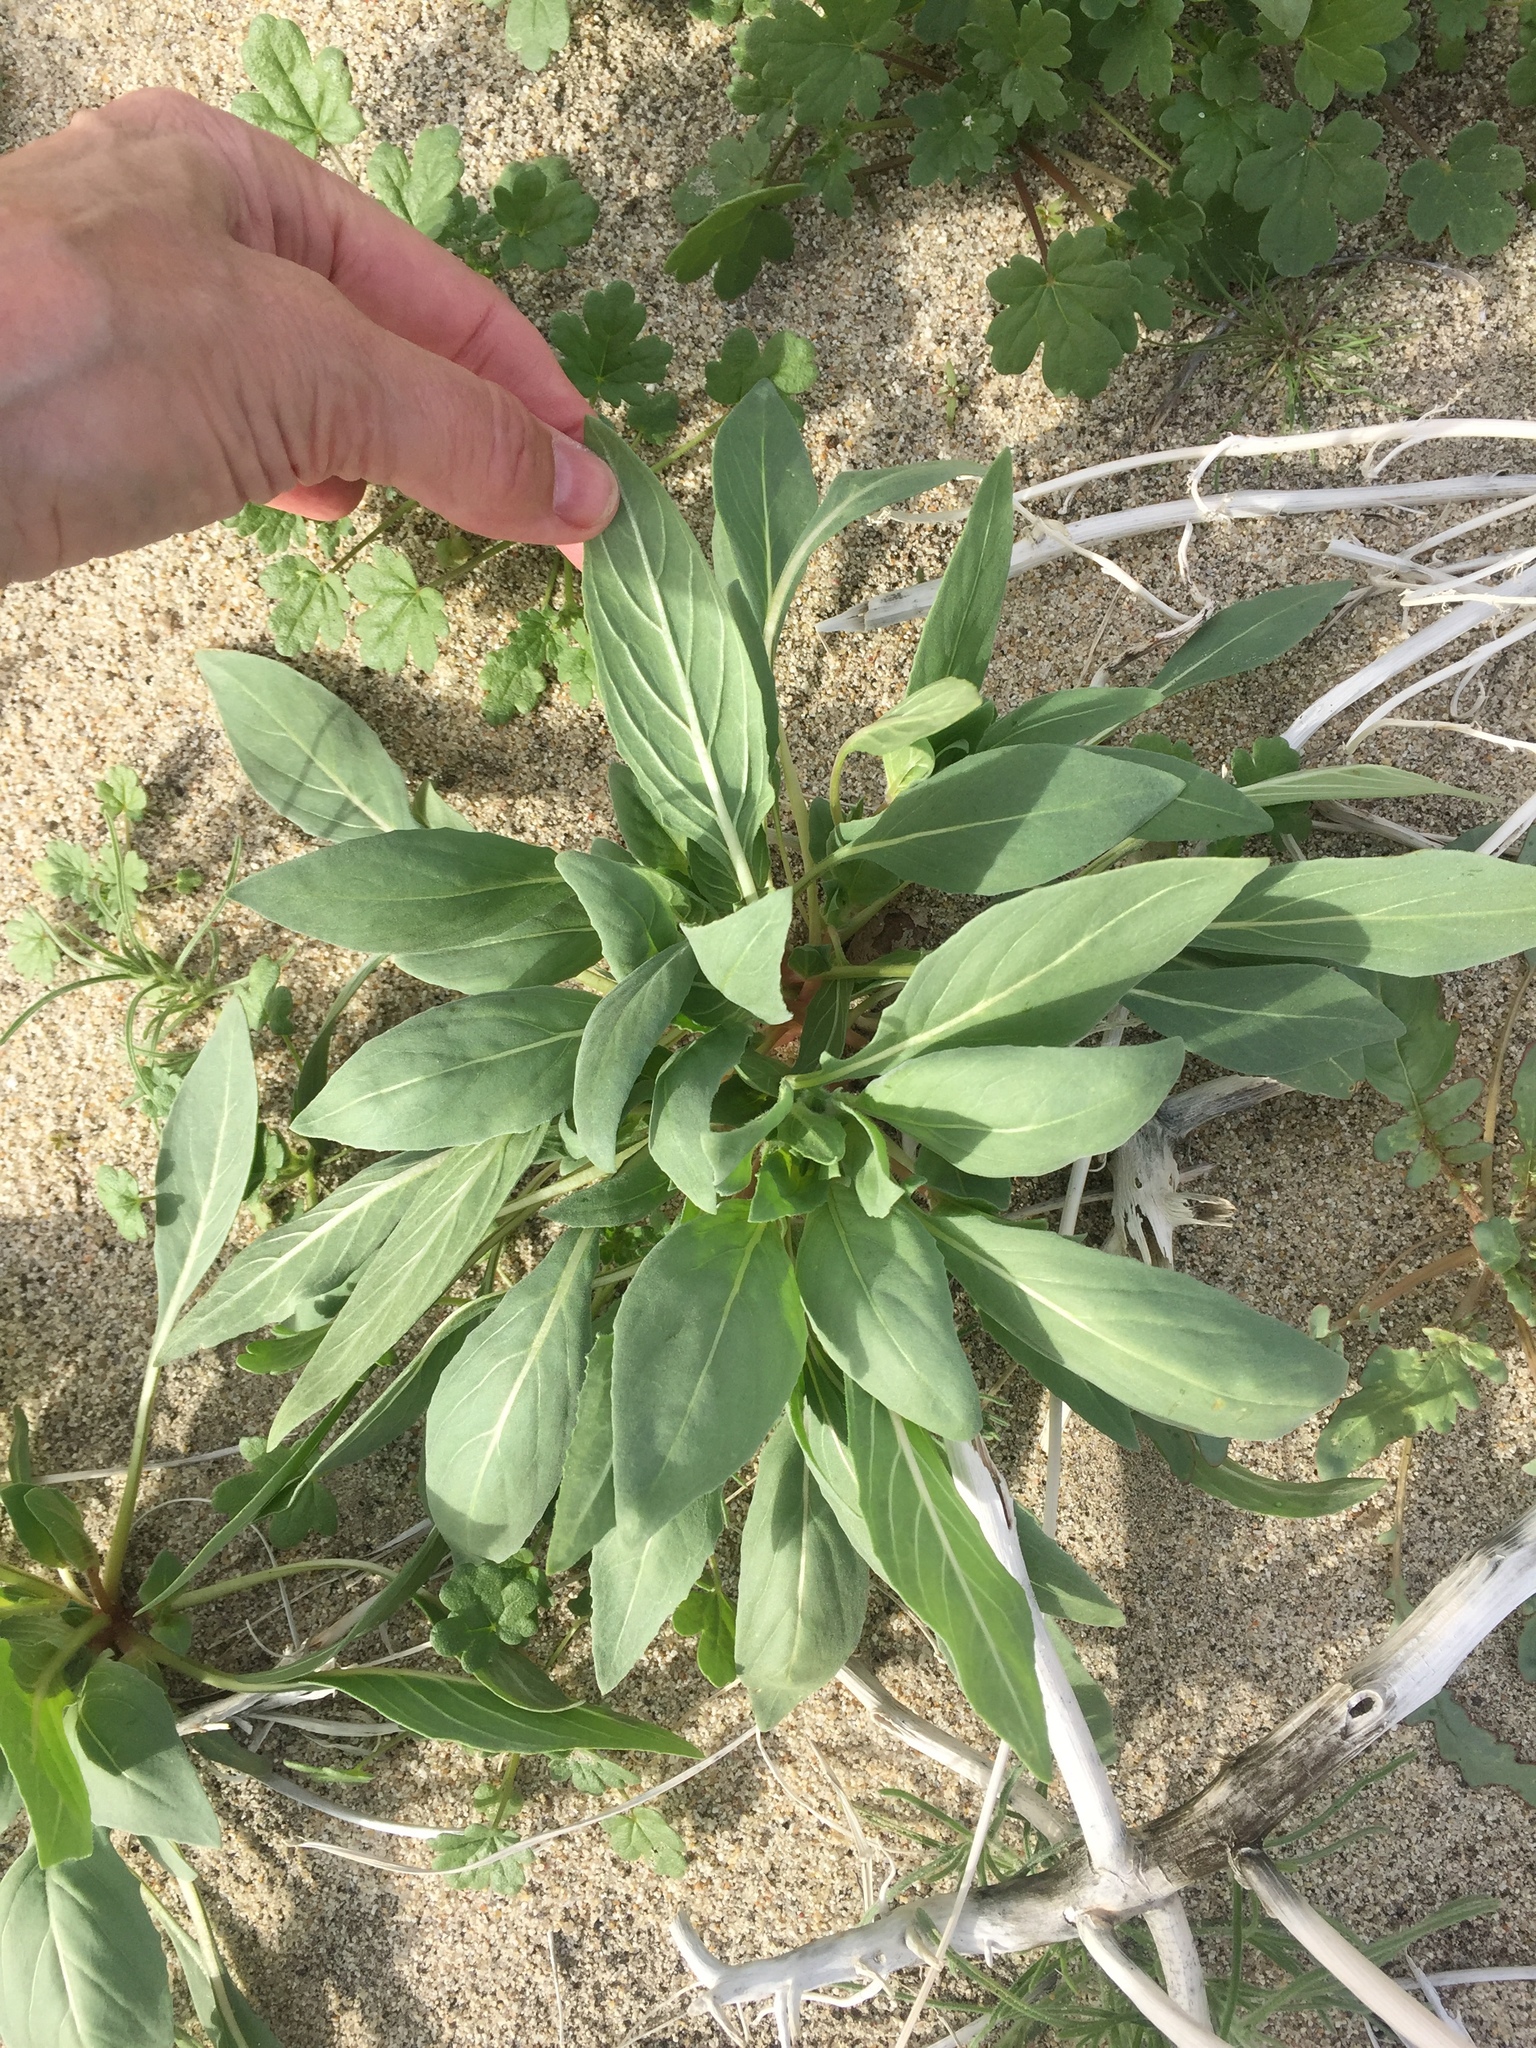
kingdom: Plantae
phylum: Tracheophyta
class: Magnoliopsida
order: Myrtales
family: Onagraceae
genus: Oenothera
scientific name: Oenothera deltoides
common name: Basket evening-primrose
